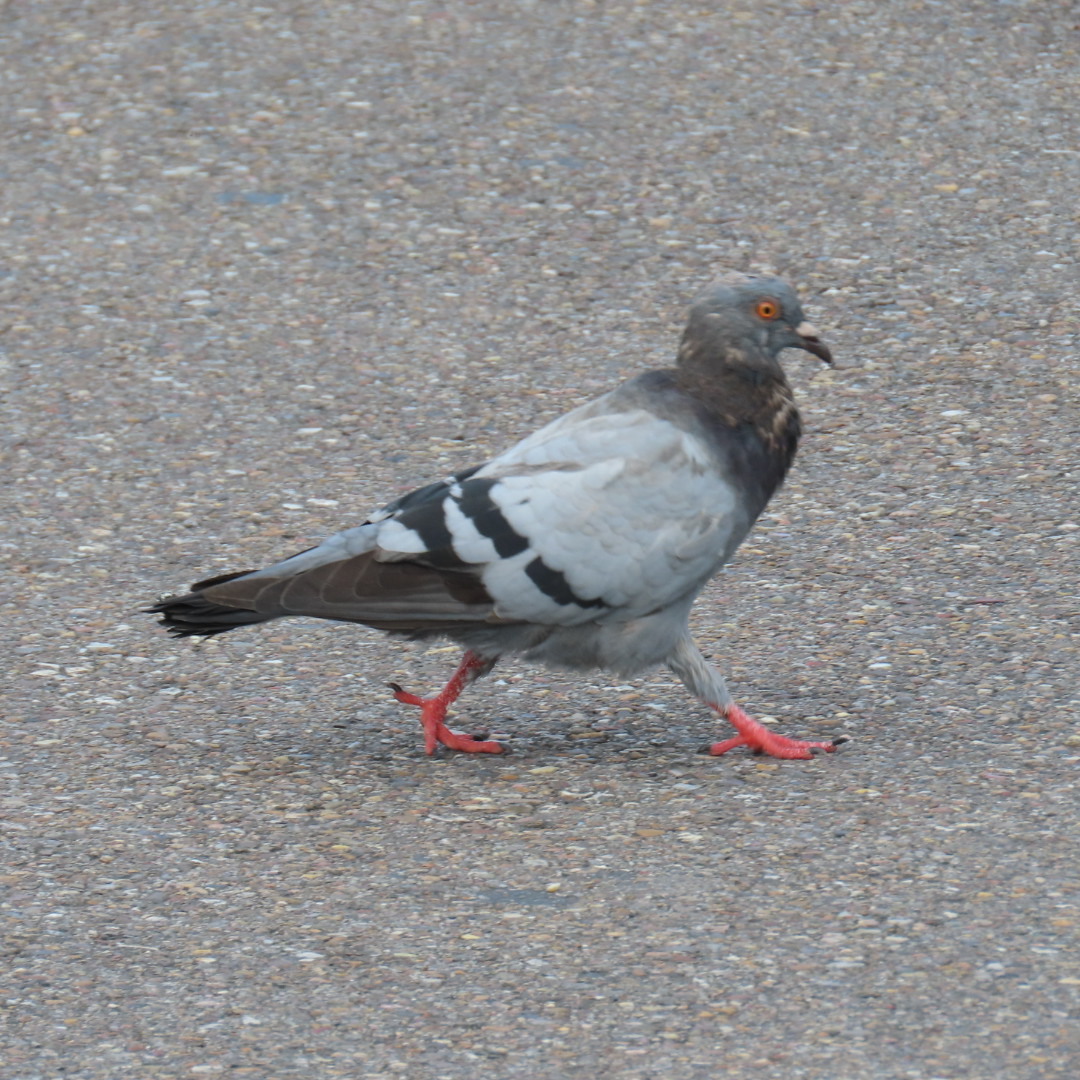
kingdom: Animalia
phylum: Chordata
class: Aves
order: Columbiformes
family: Columbidae
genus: Columba
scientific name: Columba livia
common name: Rock pigeon
